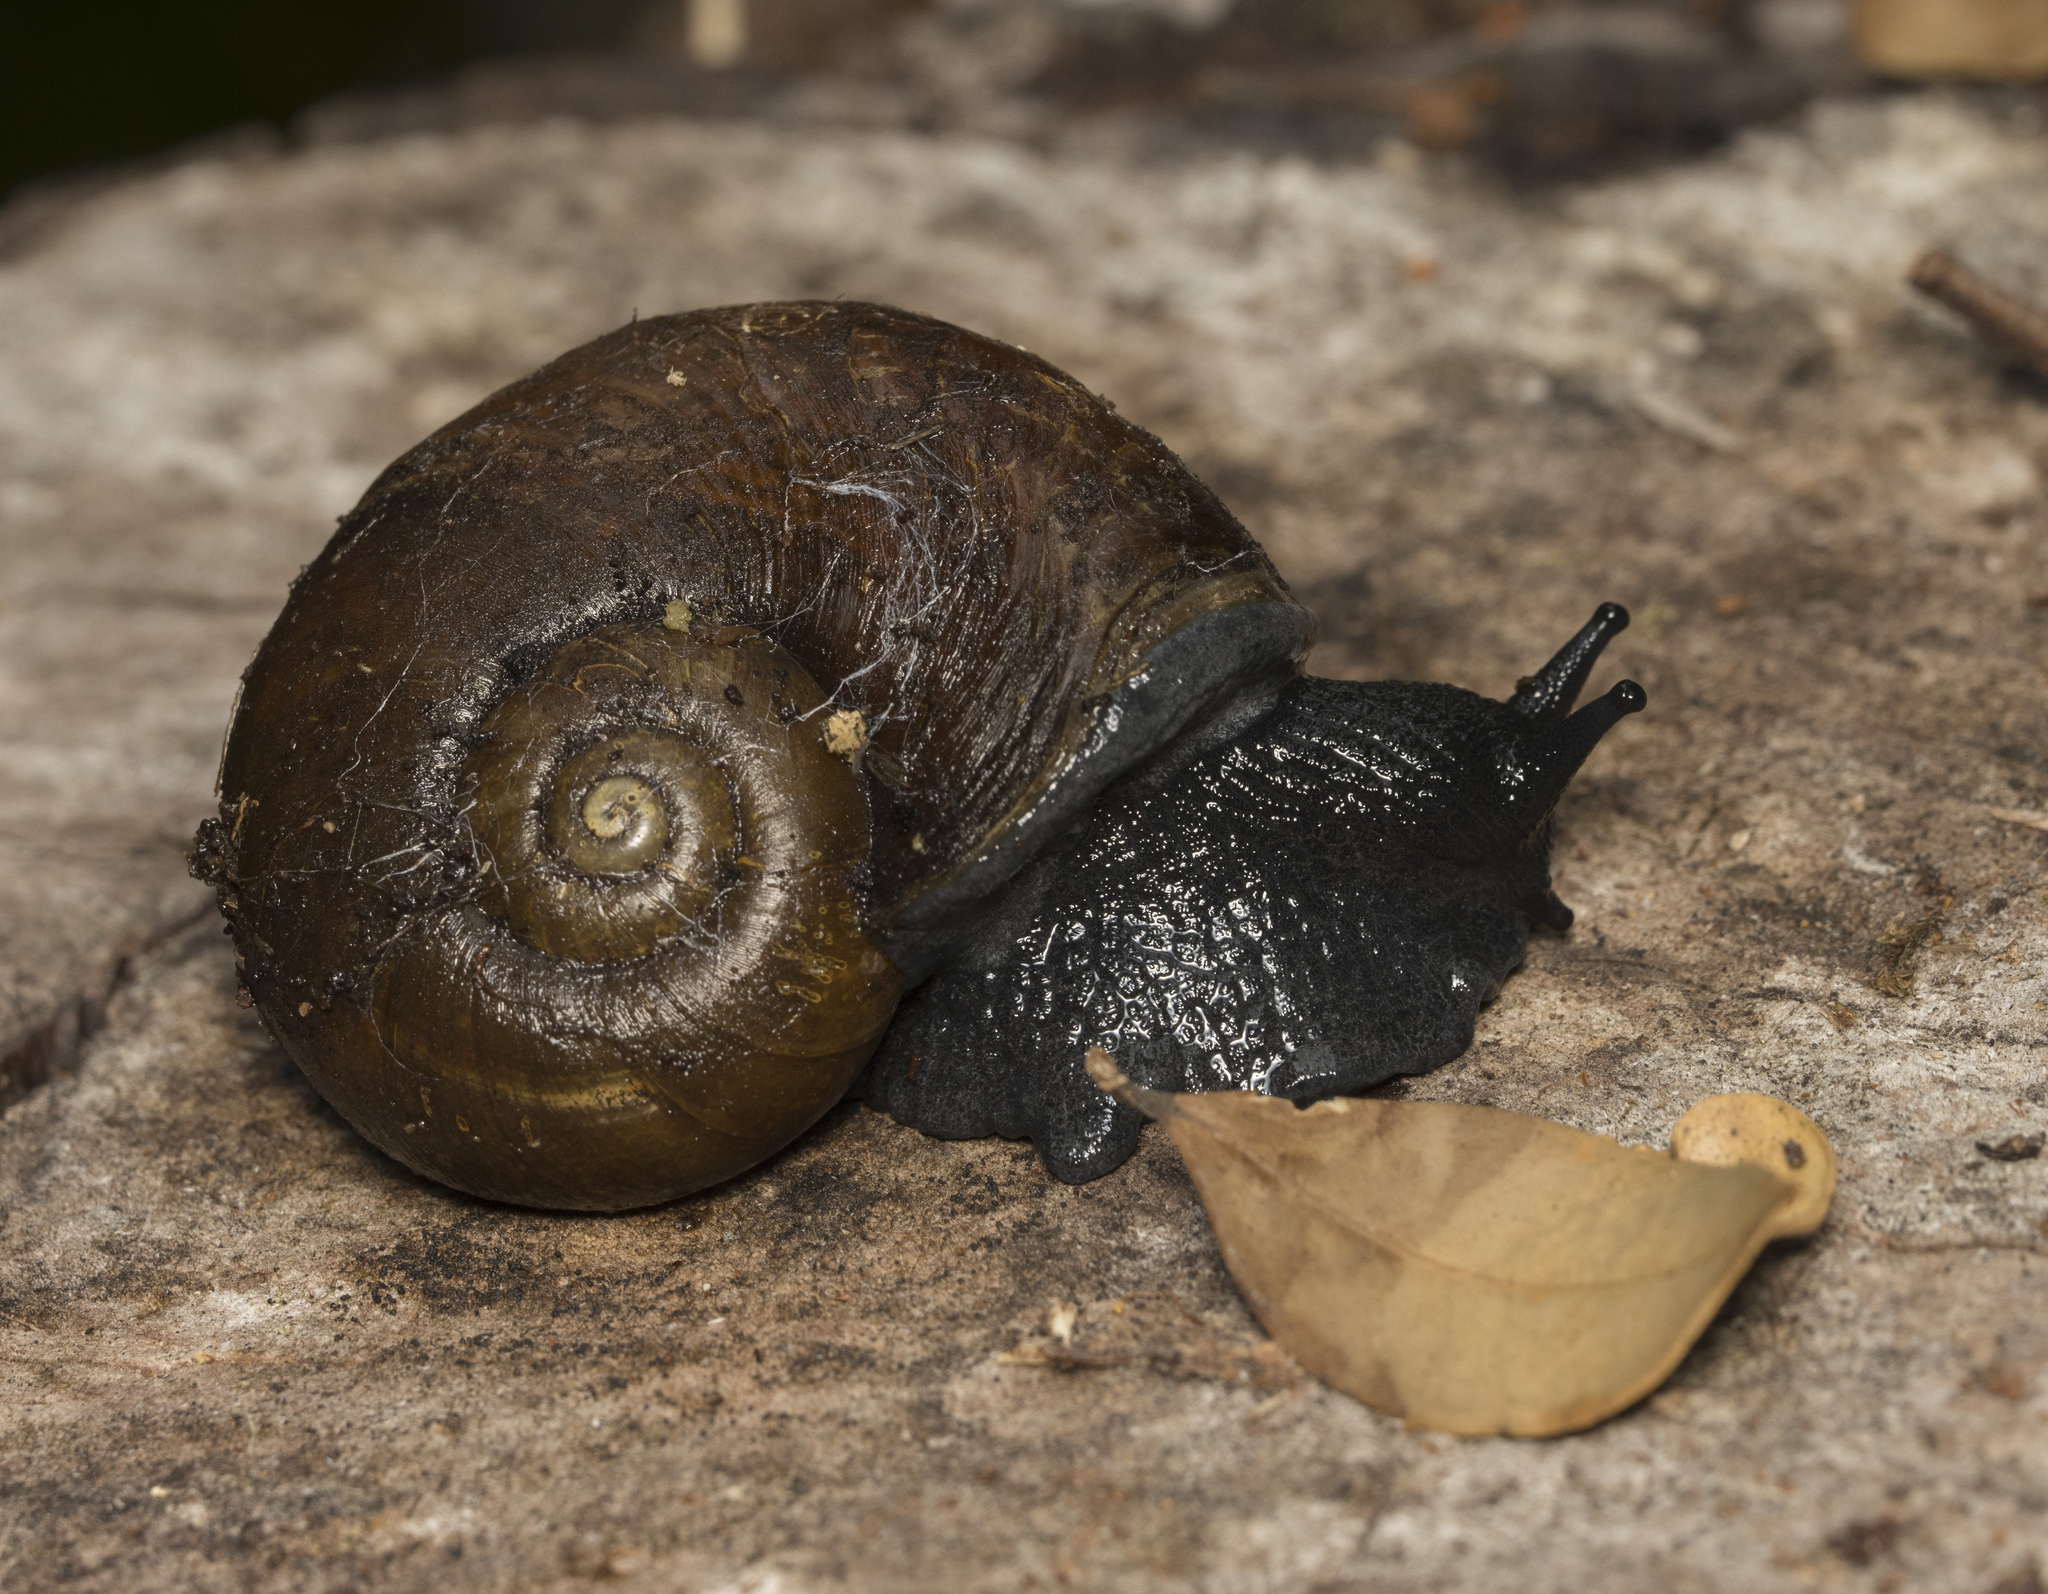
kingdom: Animalia
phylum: Mollusca
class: Gastropoda
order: Stylommatophora
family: Macrocyclidae
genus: Macrocyclis
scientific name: Macrocyclis peruvianus
